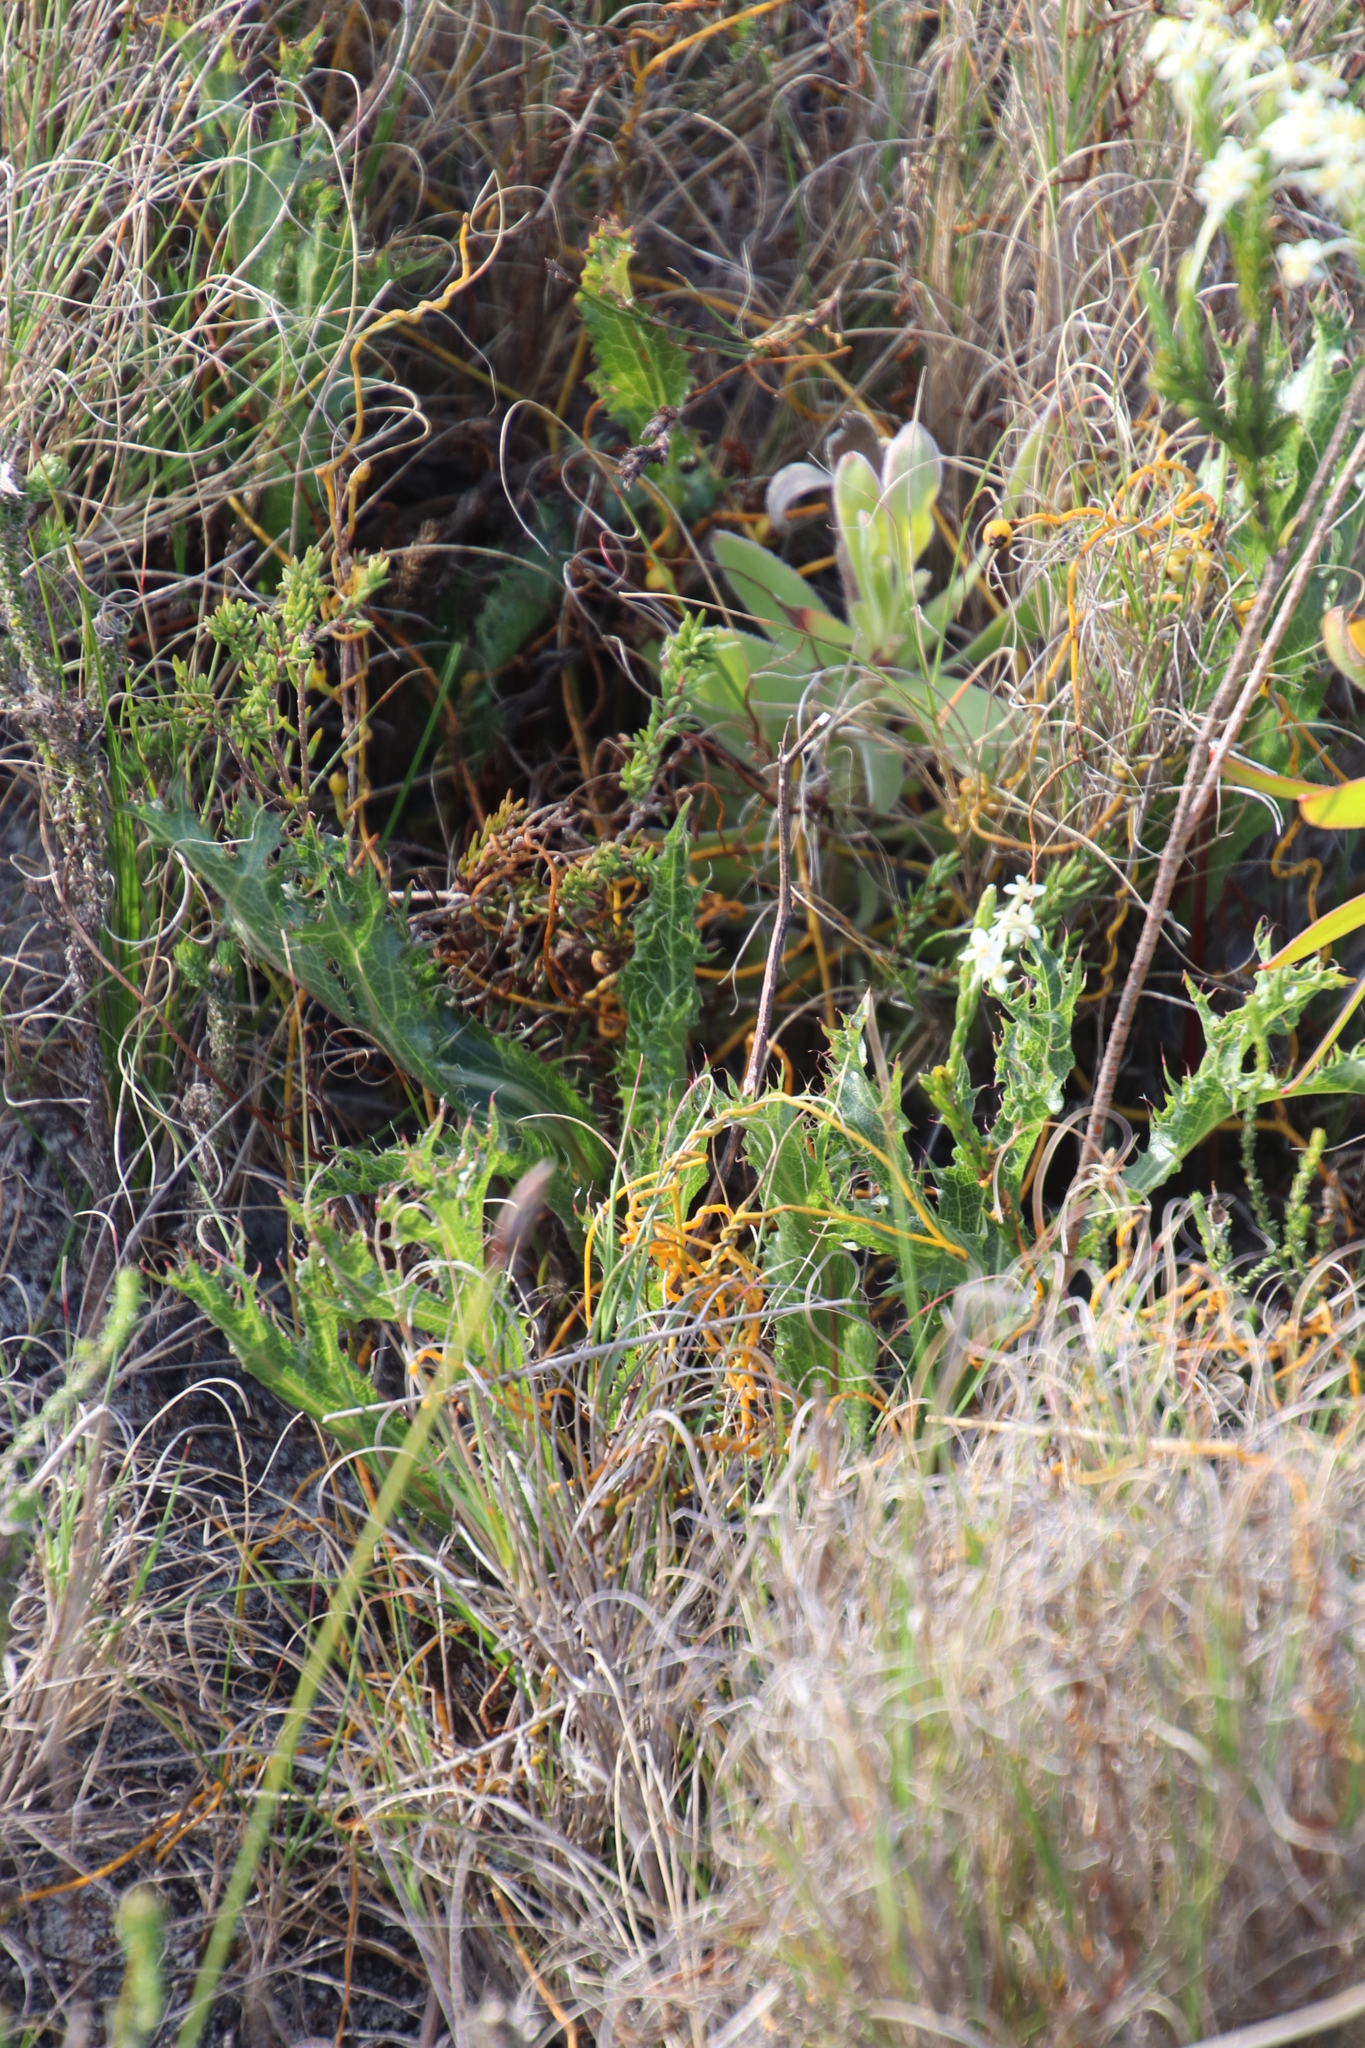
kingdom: Plantae
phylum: Tracheophyta
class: Magnoliopsida
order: Apiales
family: Apiaceae
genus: Lichtensteinia
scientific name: Lichtensteinia lacera
